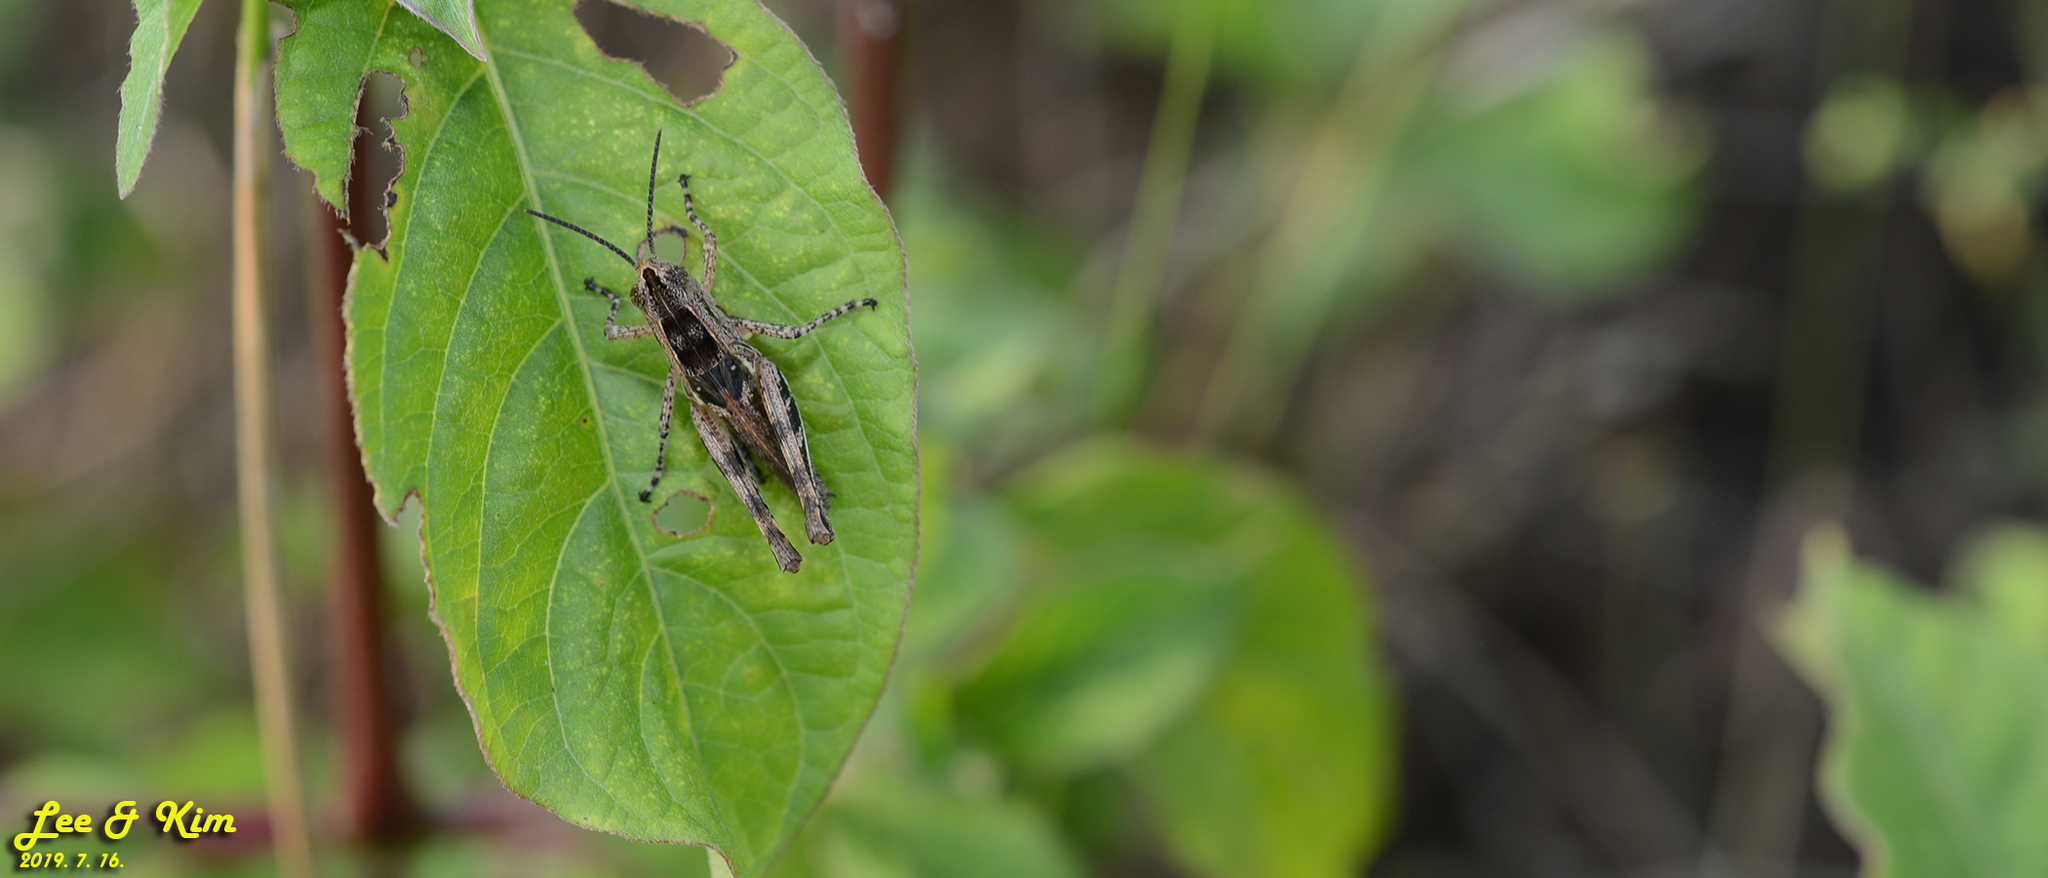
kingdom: Animalia
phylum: Arthropoda
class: Insecta
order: Orthoptera
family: Acrididae
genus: Shirakiacris
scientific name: Shirakiacris shirakii
